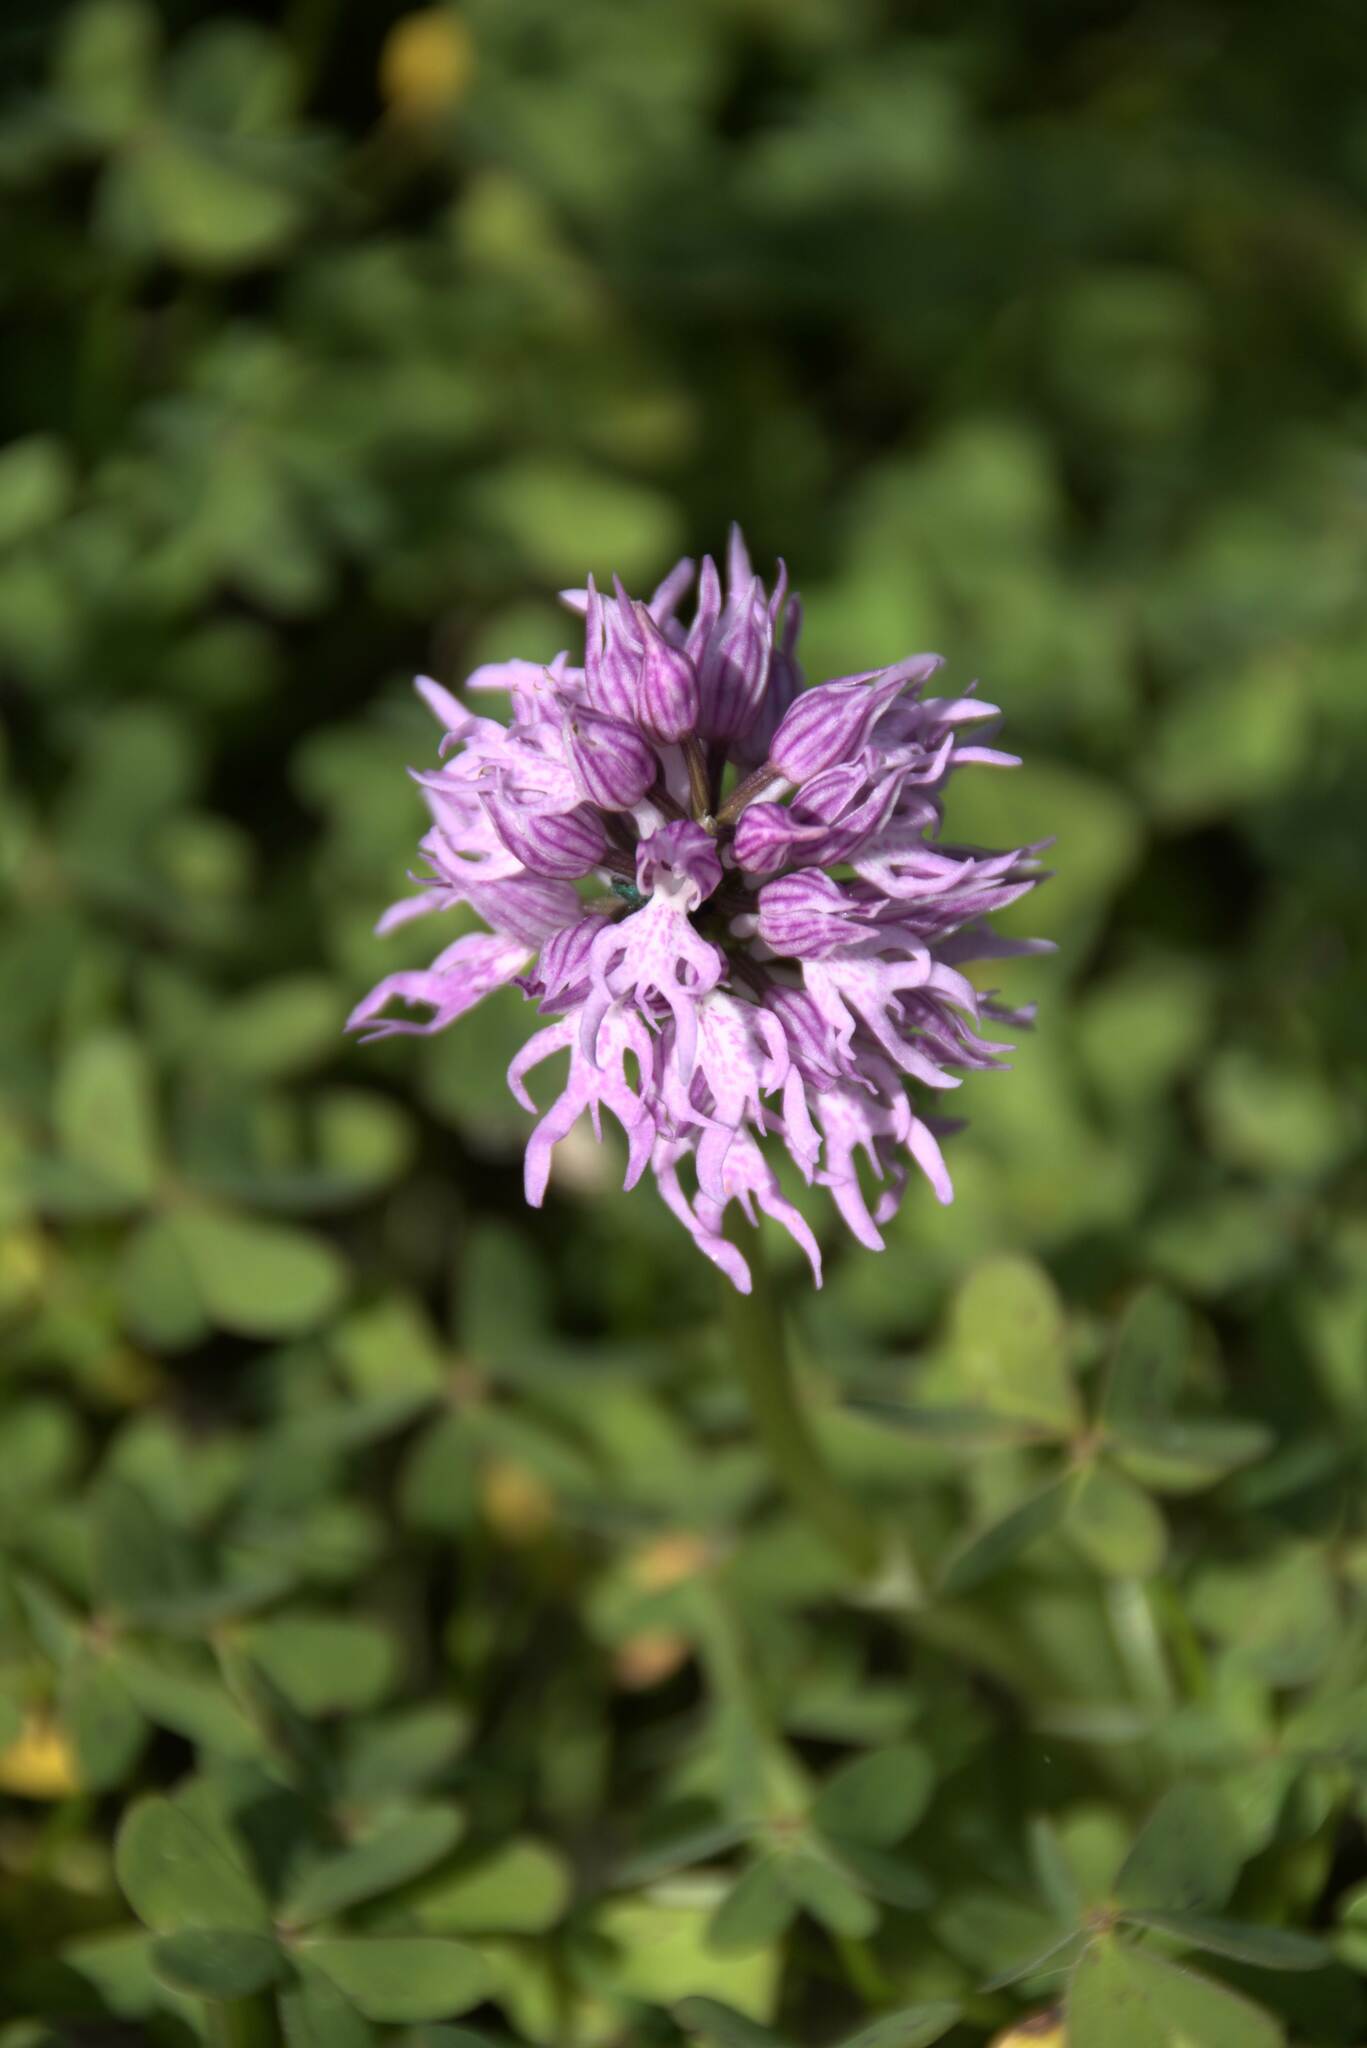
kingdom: Plantae
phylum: Tracheophyta
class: Liliopsida
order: Asparagales
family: Orchidaceae
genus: Orchis
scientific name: Orchis italica
